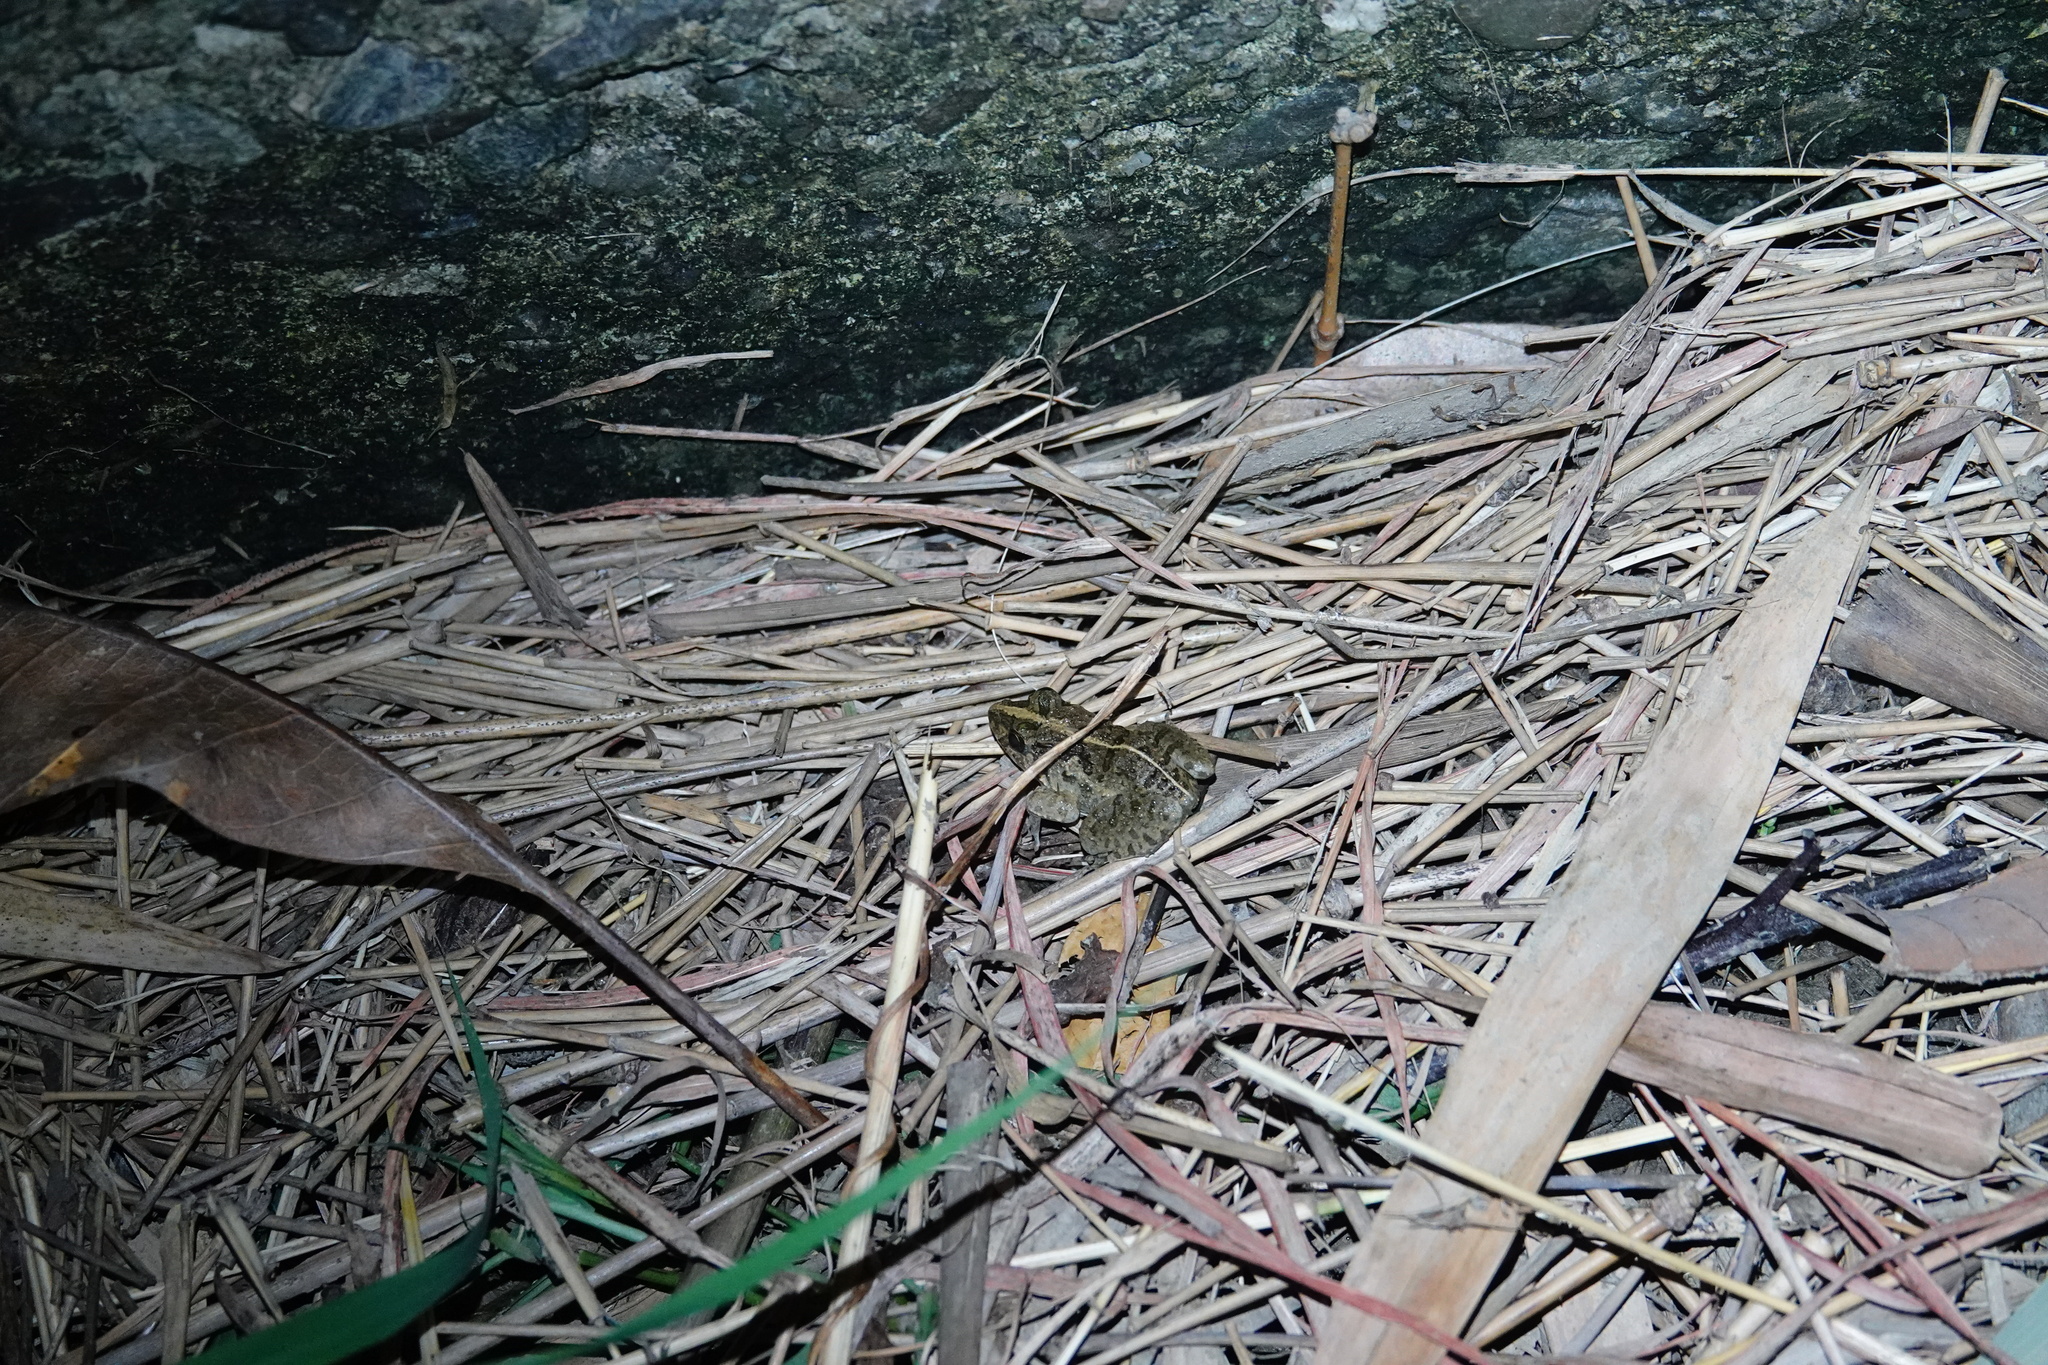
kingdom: Animalia
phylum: Chordata
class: Amphibia
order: Anura
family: Dicroglossidae
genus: Fejervarya
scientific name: Fejervarya limnocharis
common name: Asian grass frog/common pond frog/field frog/grass frog/indian rice frog
